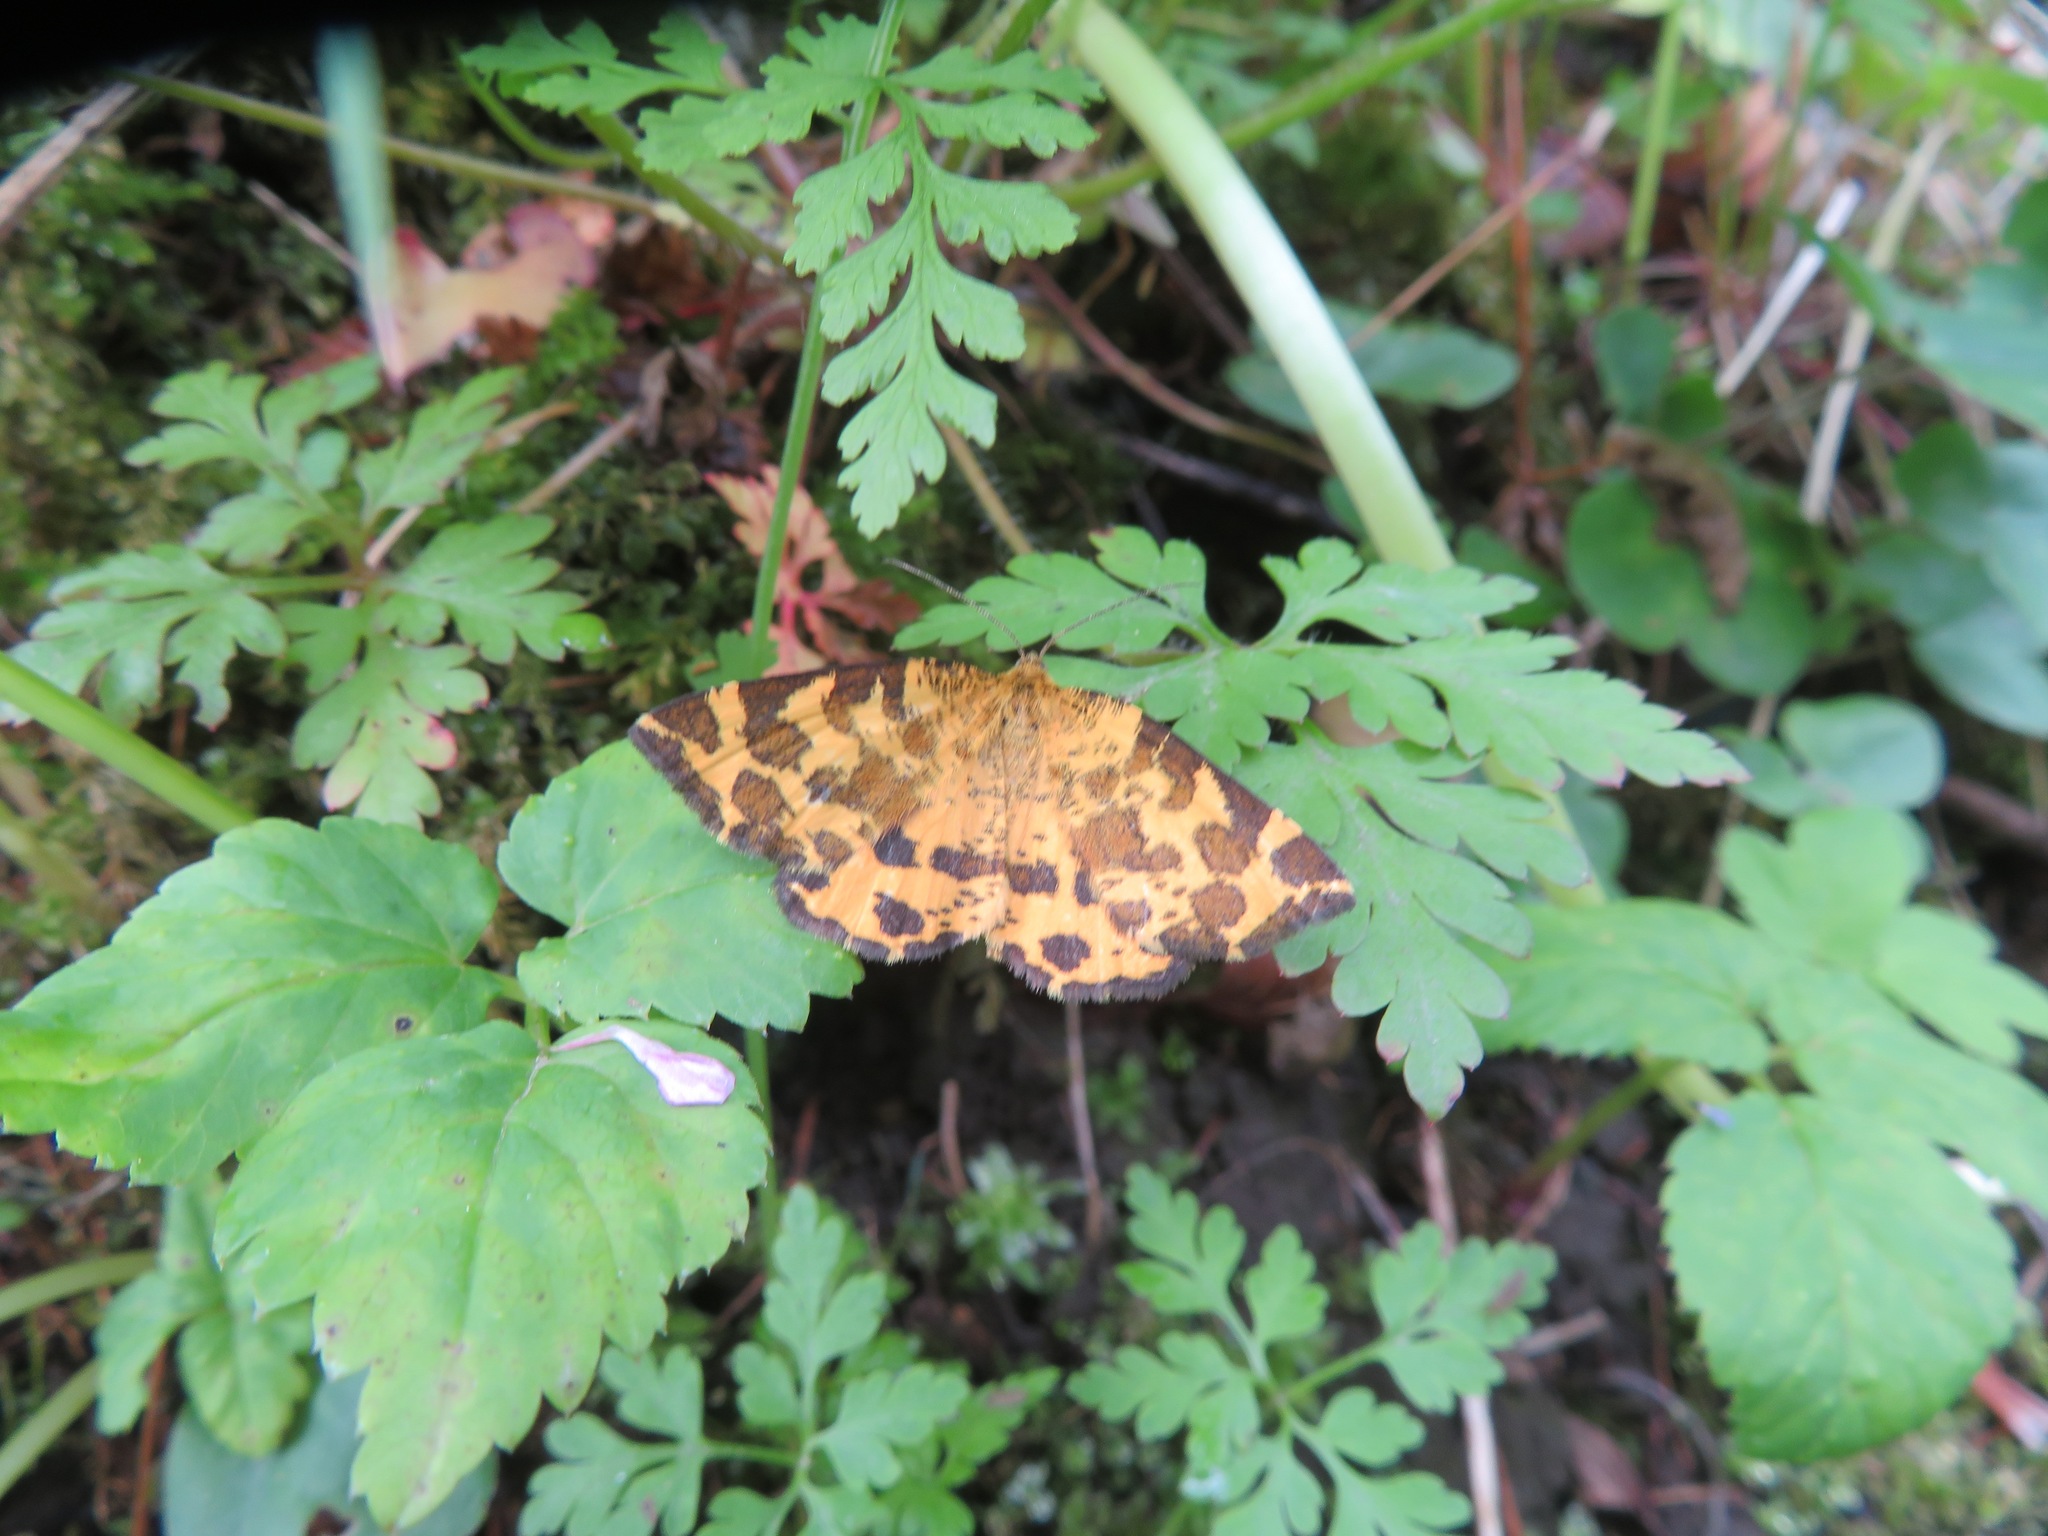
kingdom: Animalia
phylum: Arthropoda
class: Insecta
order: Lepidoptera
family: Geometridae
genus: Pseudopanthera
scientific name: Pseudopanthera macularia
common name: Speckled yellow
